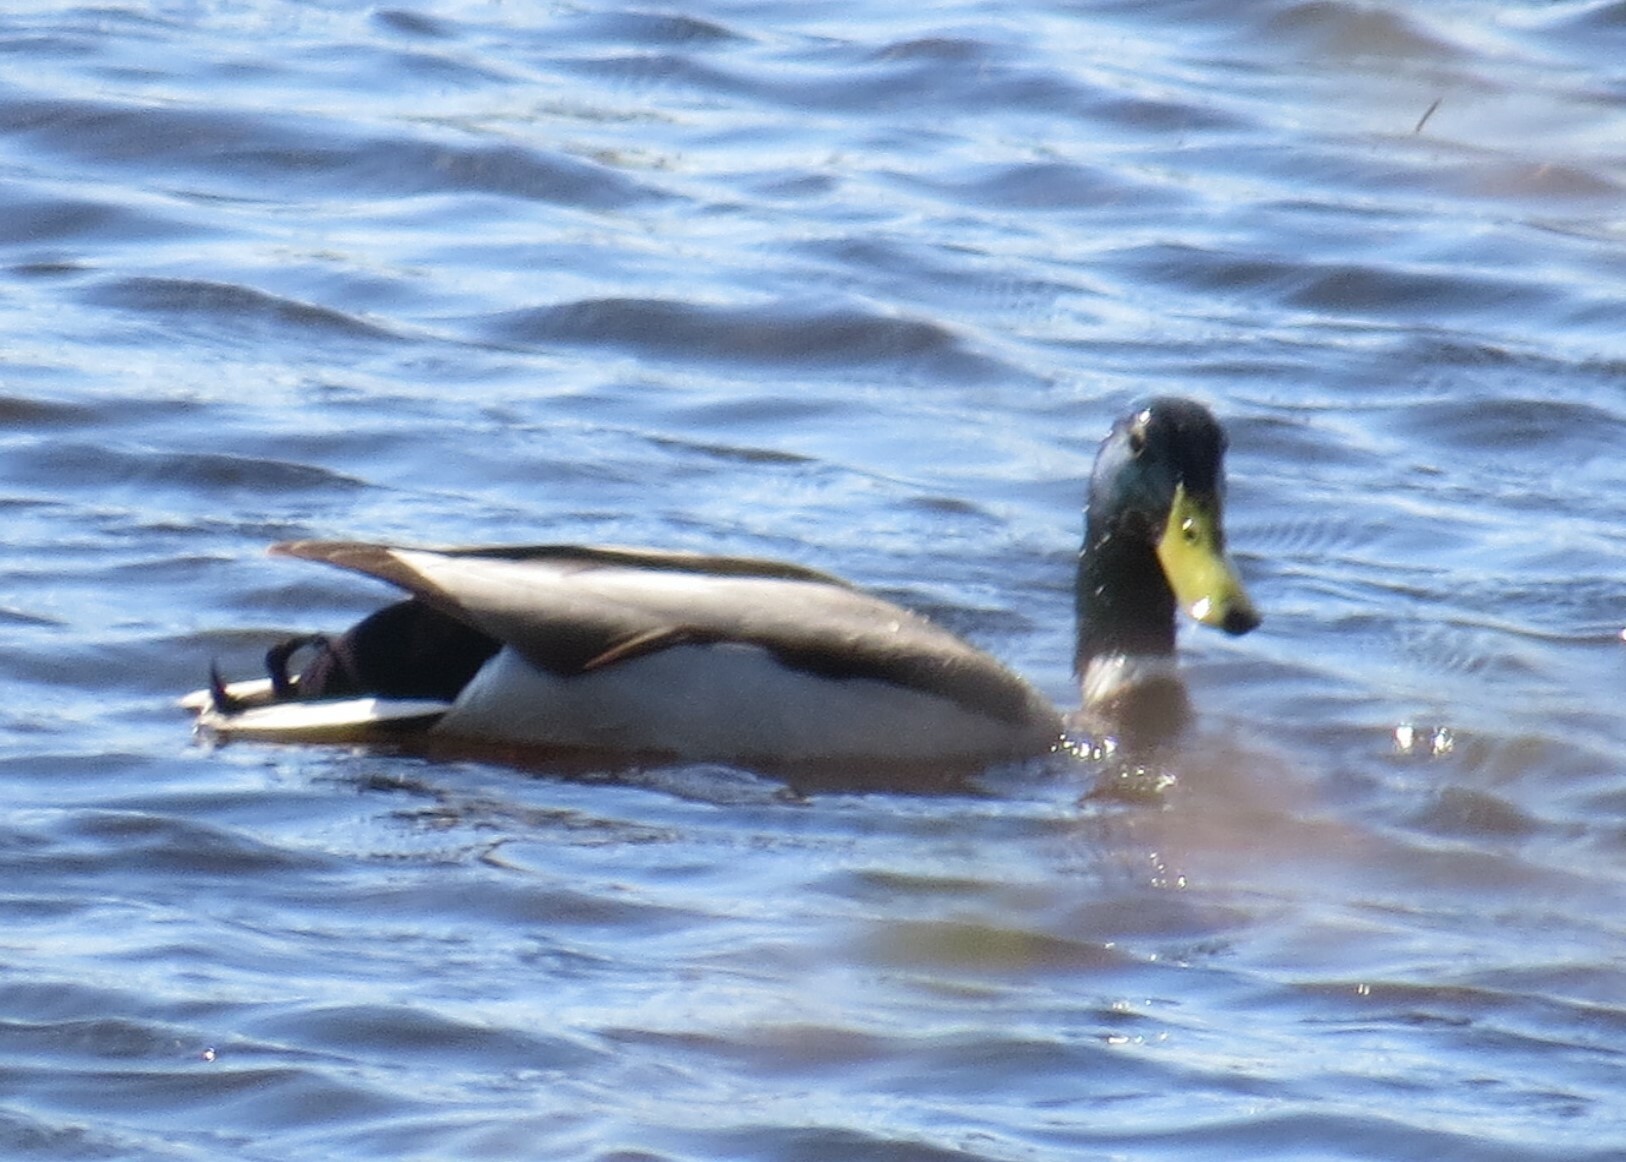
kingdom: Animalia
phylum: Chordata
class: Aves
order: Anseriformes
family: Anatidae
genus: Anas
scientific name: Anas platyrhynchos
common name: Mallard
